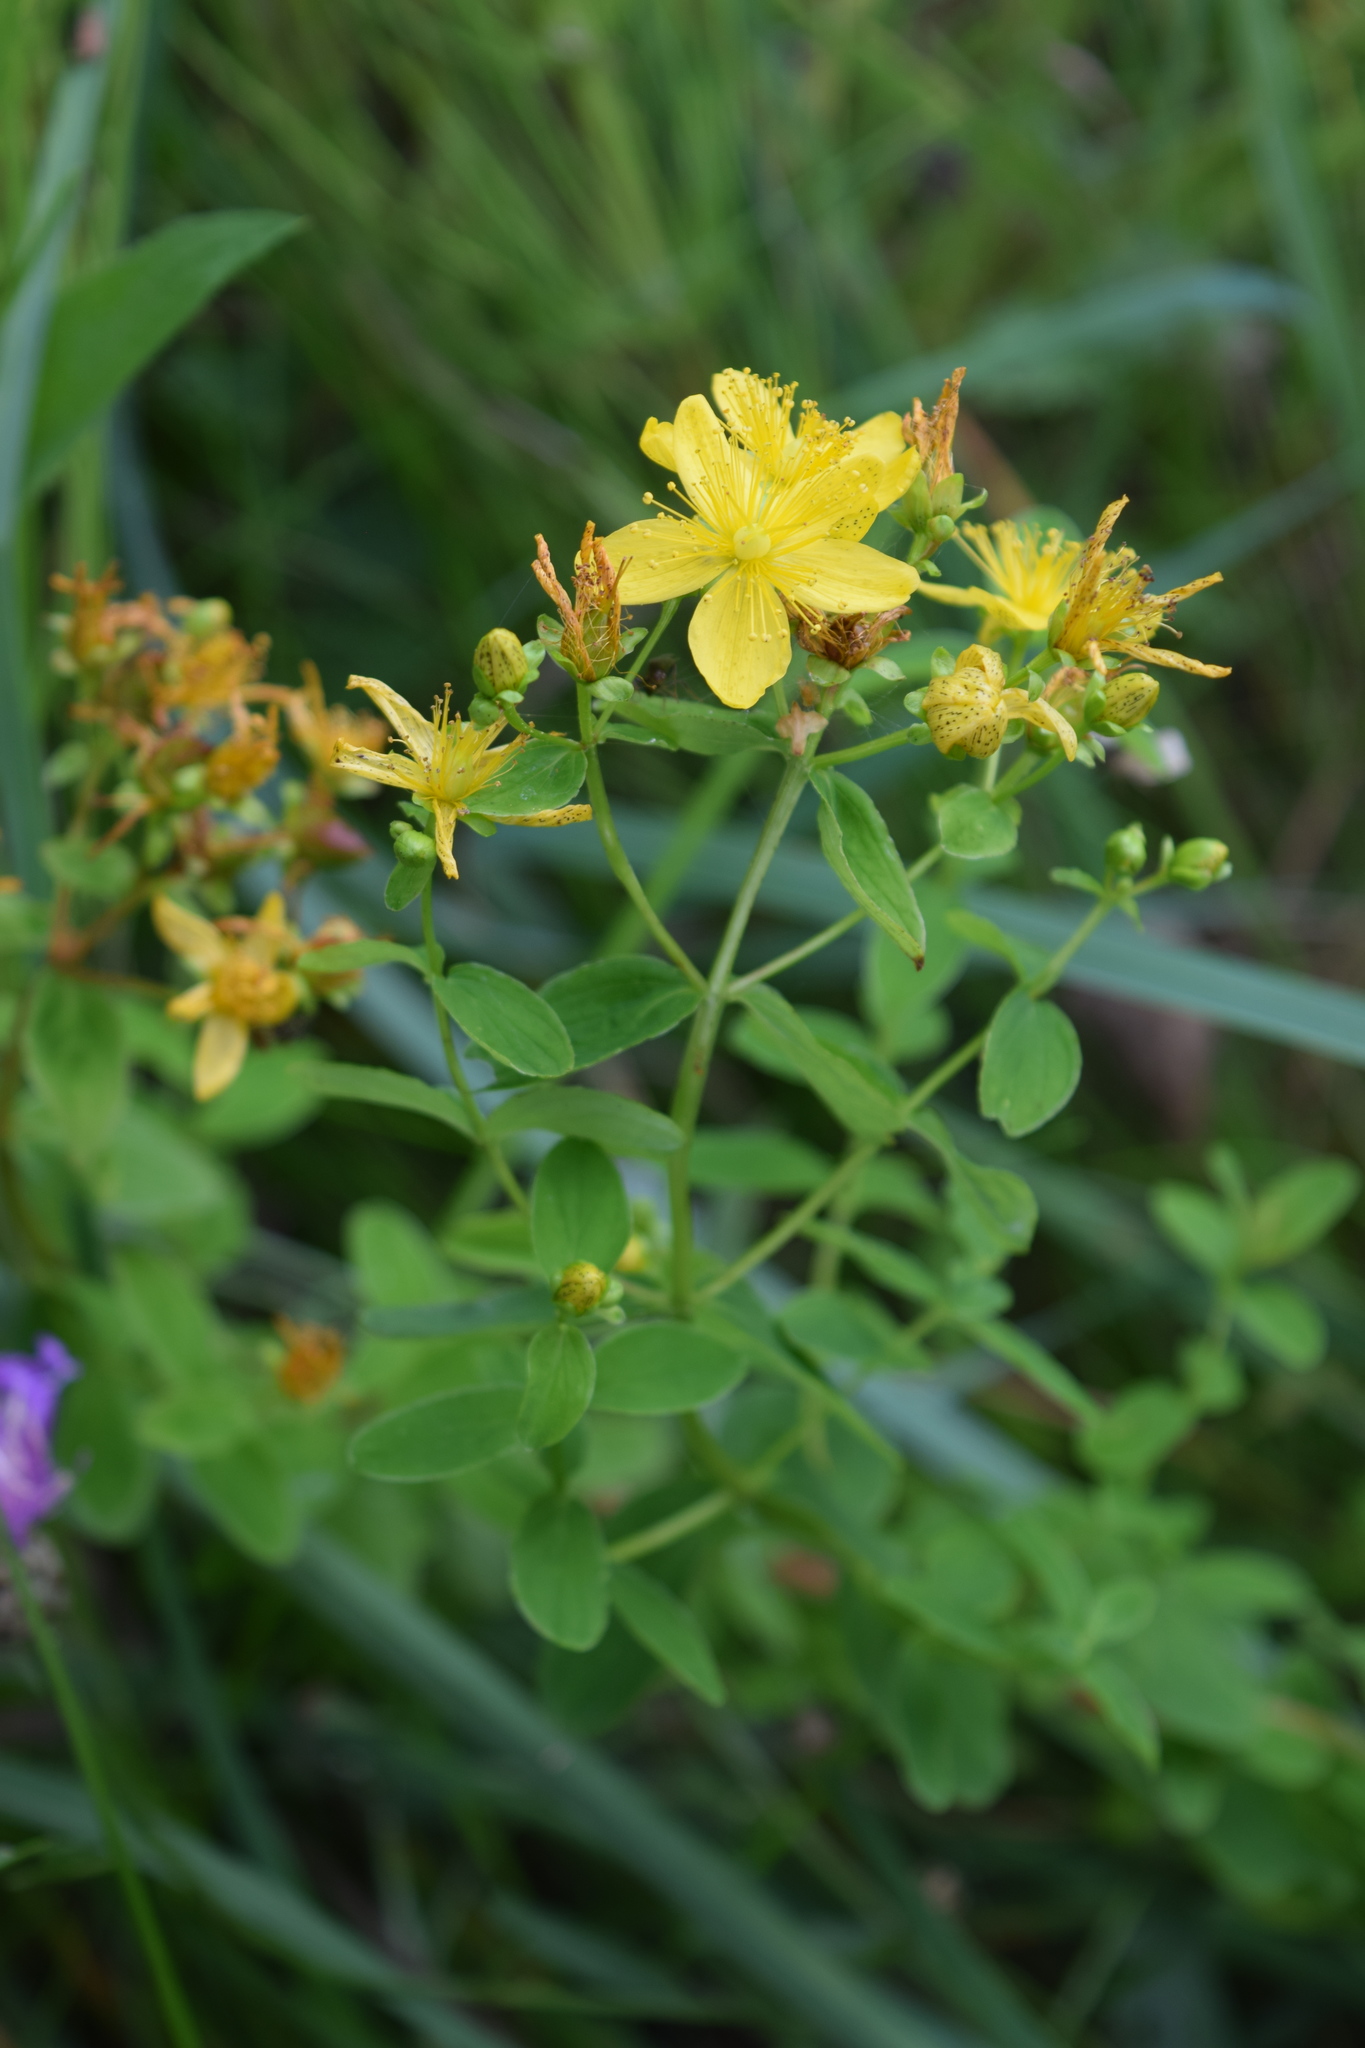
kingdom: Plantae
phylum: Tracheophyta
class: Magnoliopsida
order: Malpighiales
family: Hypericaceae
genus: Hypericum
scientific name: Hypericum maculatum
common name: Imperforate st. john's-wort
